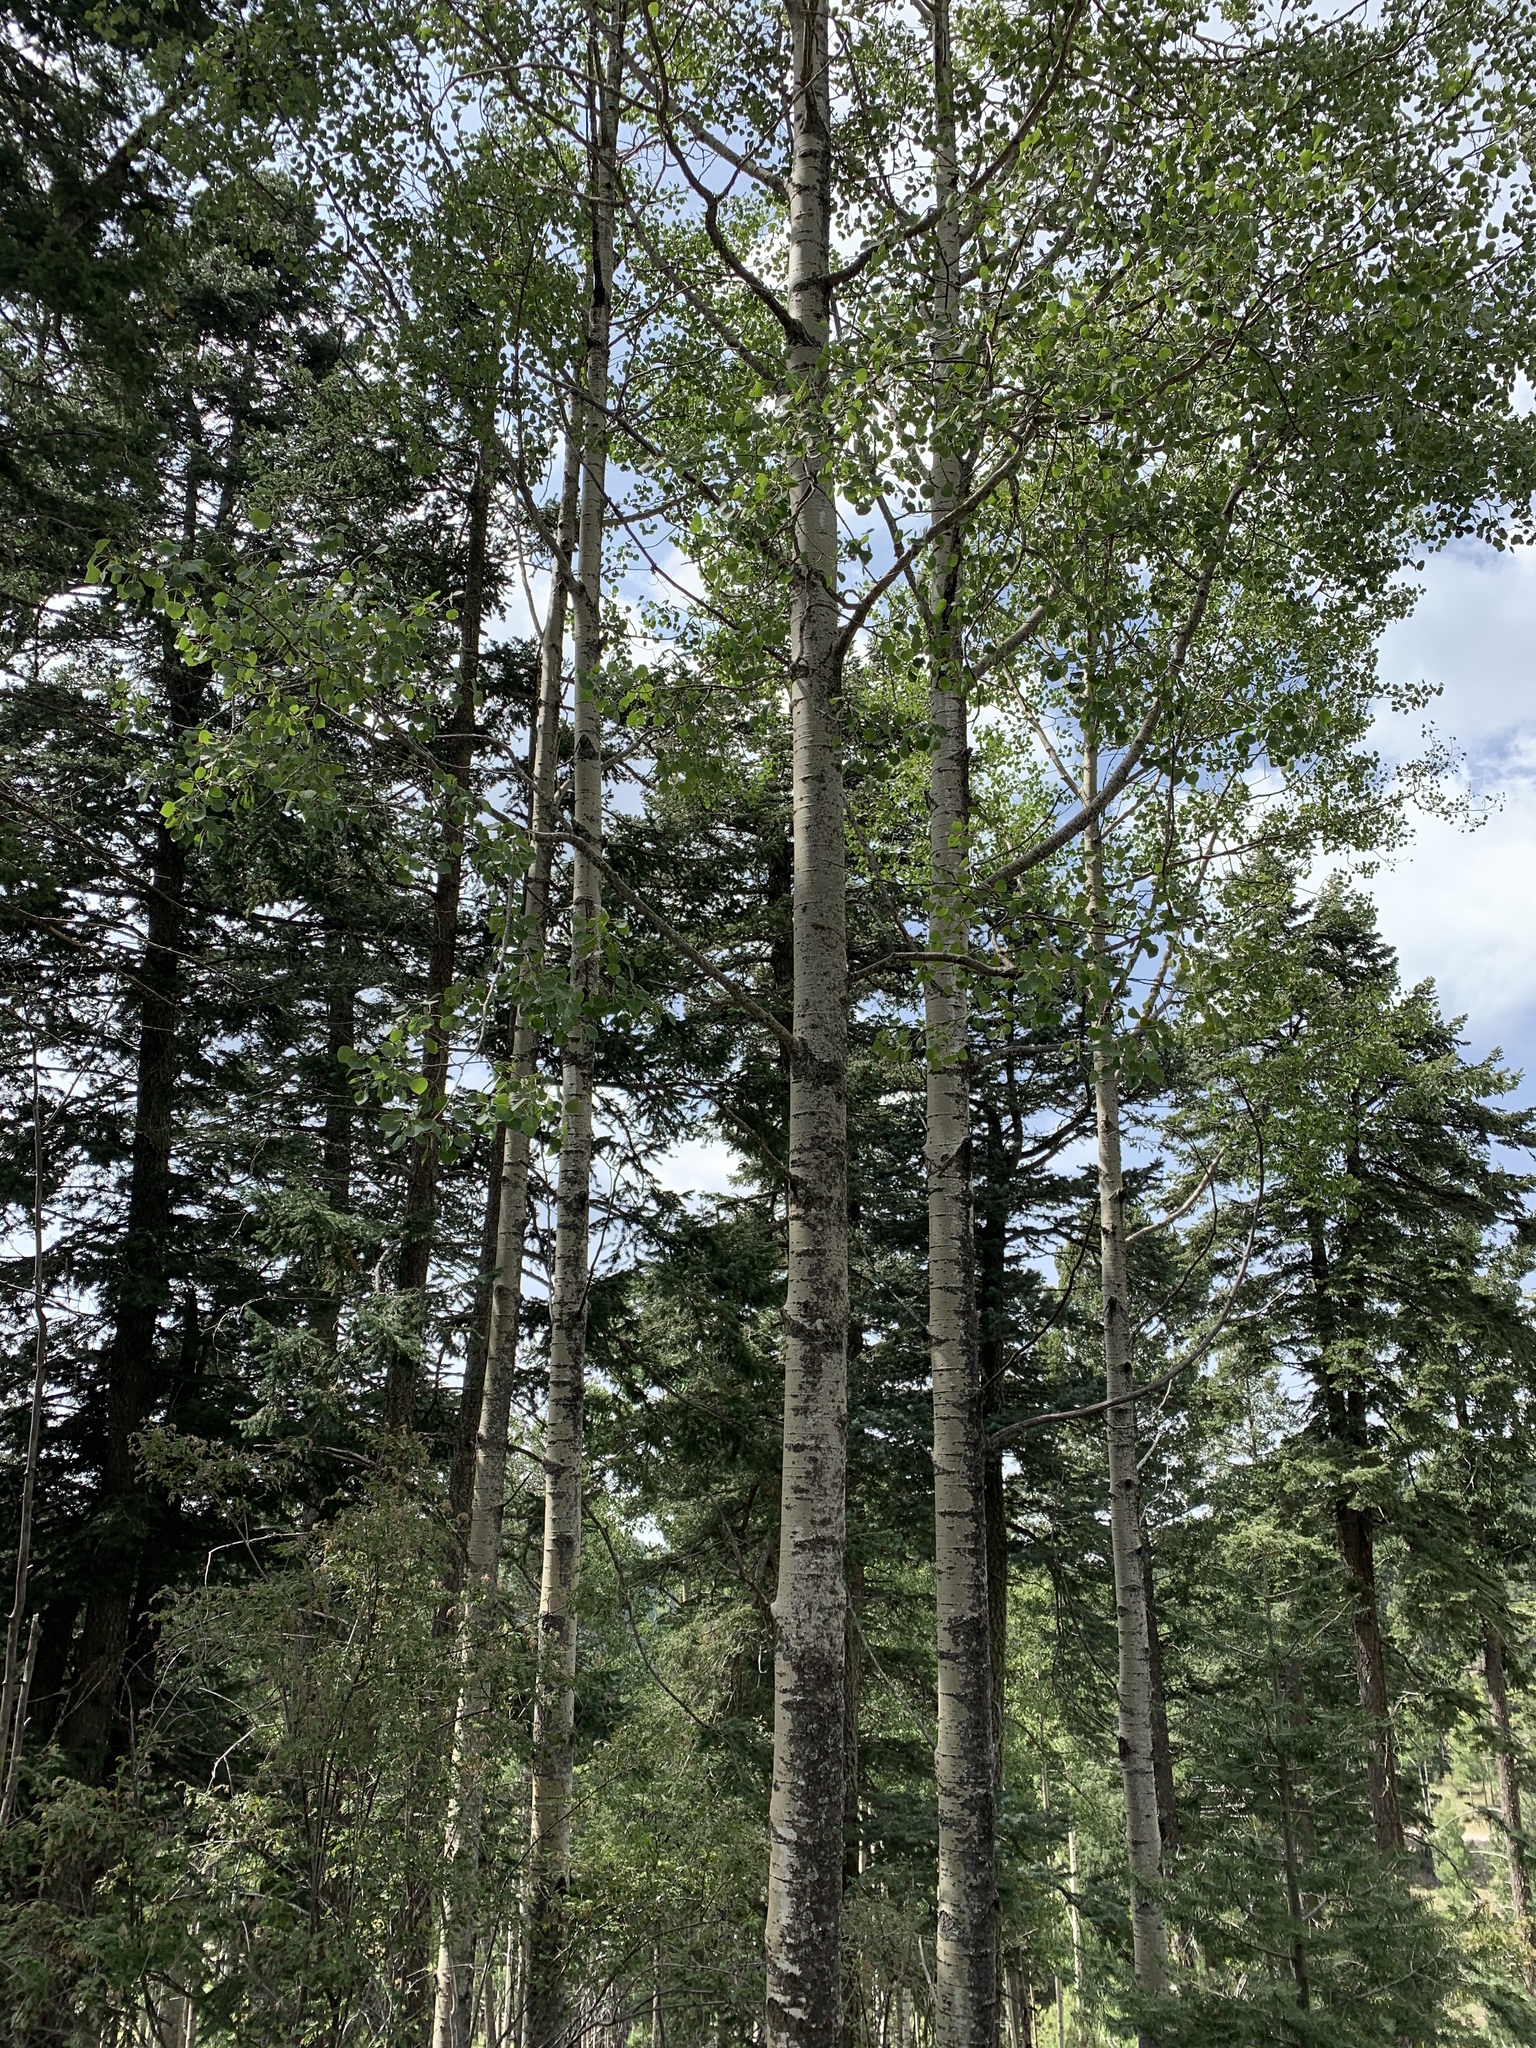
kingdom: Plantae
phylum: Tracheophyta
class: Magnoliopsida
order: Malpighiales
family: Salicaceae
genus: Populus
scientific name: Populus tremuloides
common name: Quaking aspen
